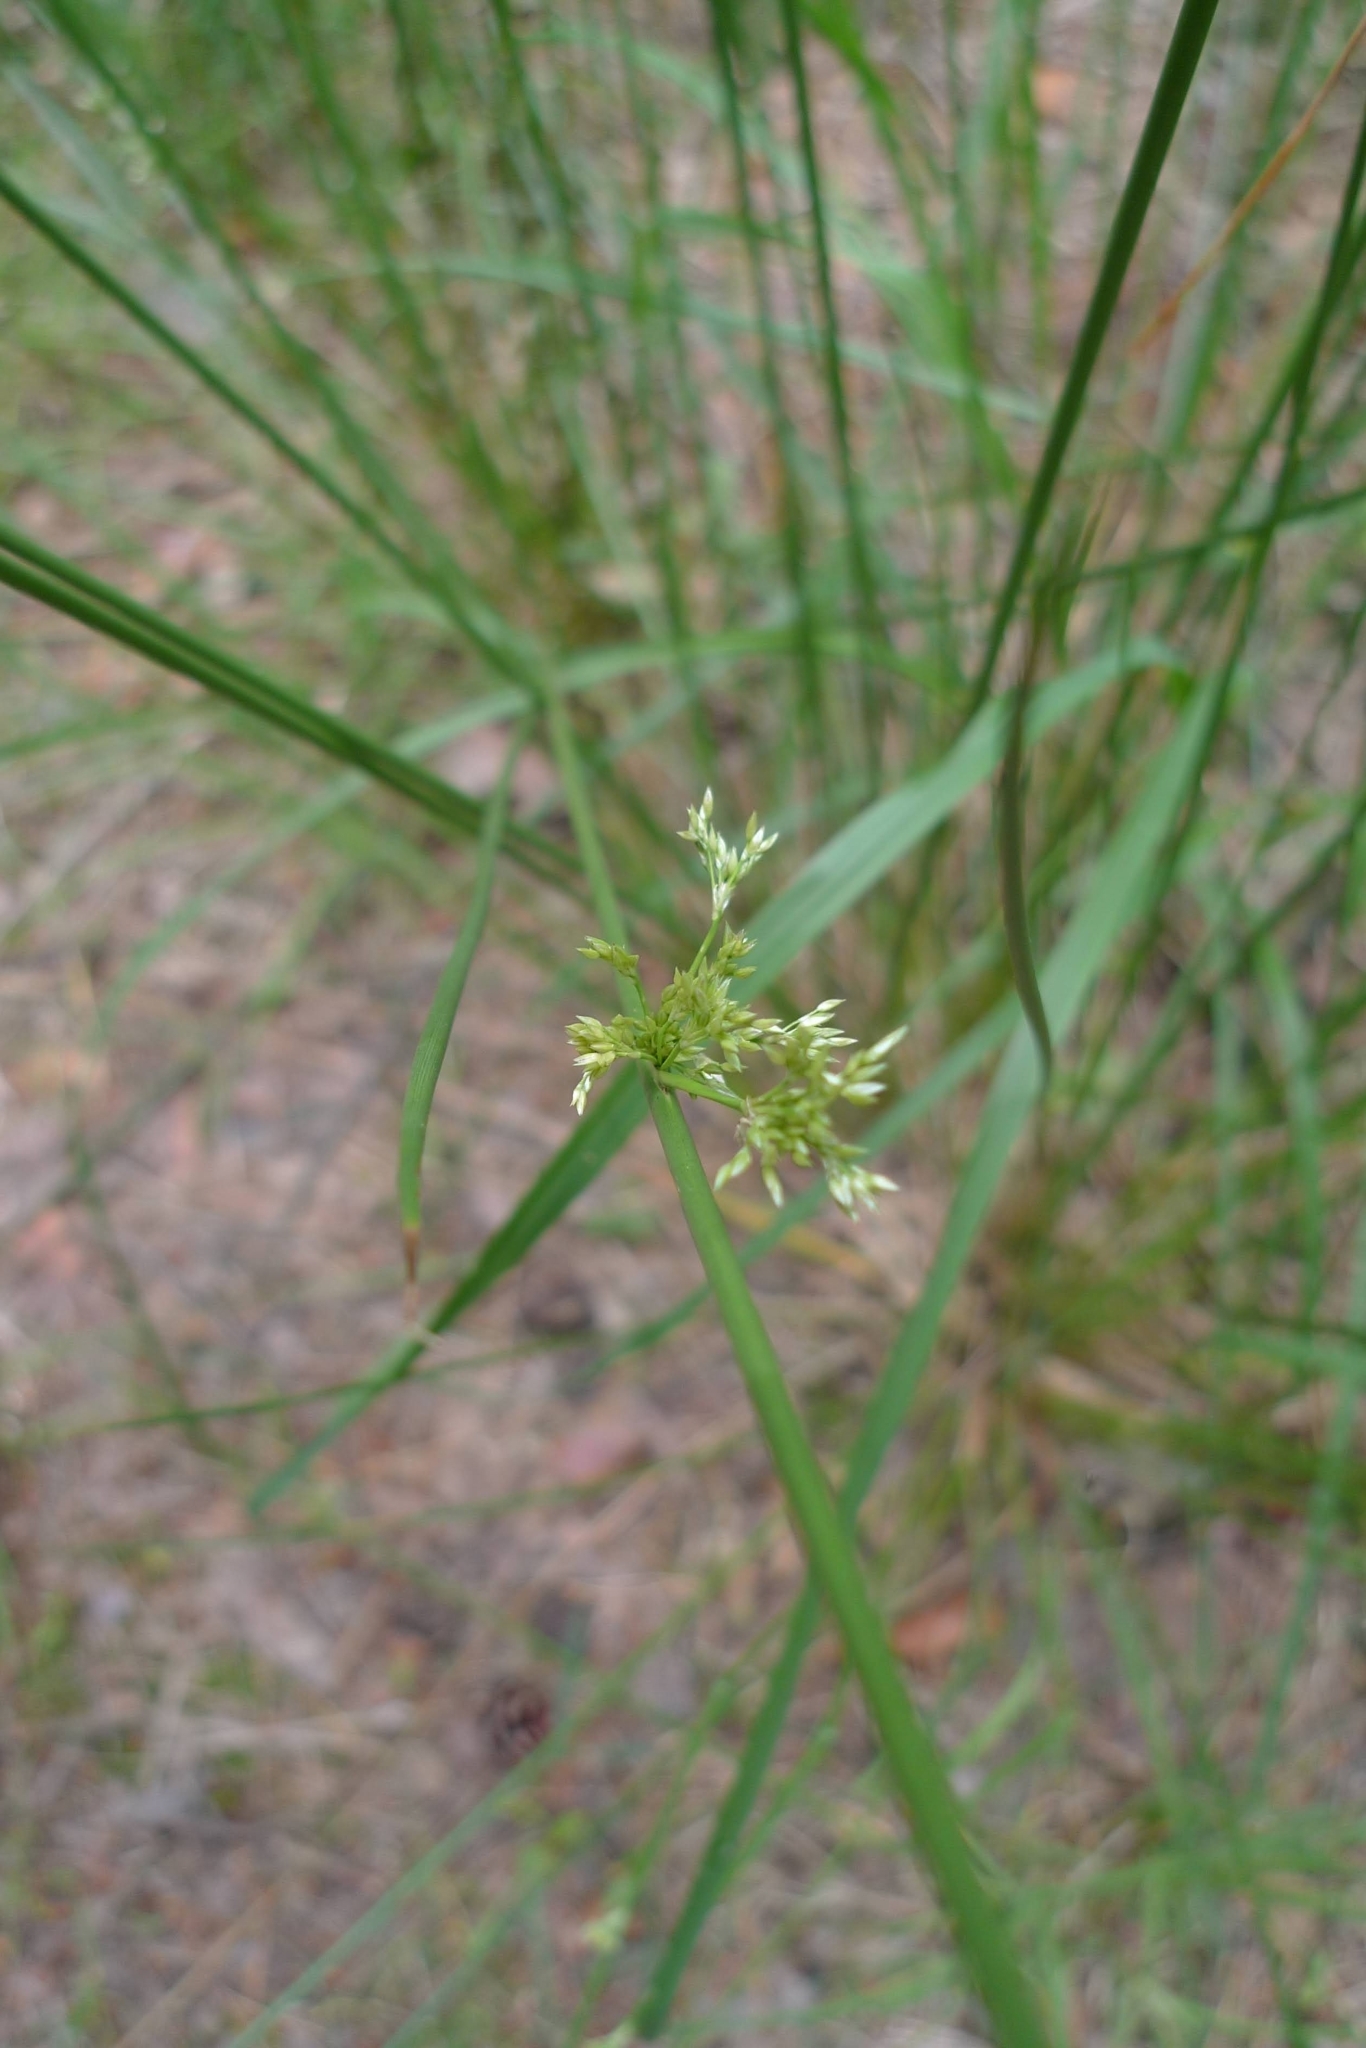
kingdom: Plantae
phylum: Tracheophyta
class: Liliopsida
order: Poales
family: Juncaceae
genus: Juncus
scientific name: Juncus effusus
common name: Soft rush
